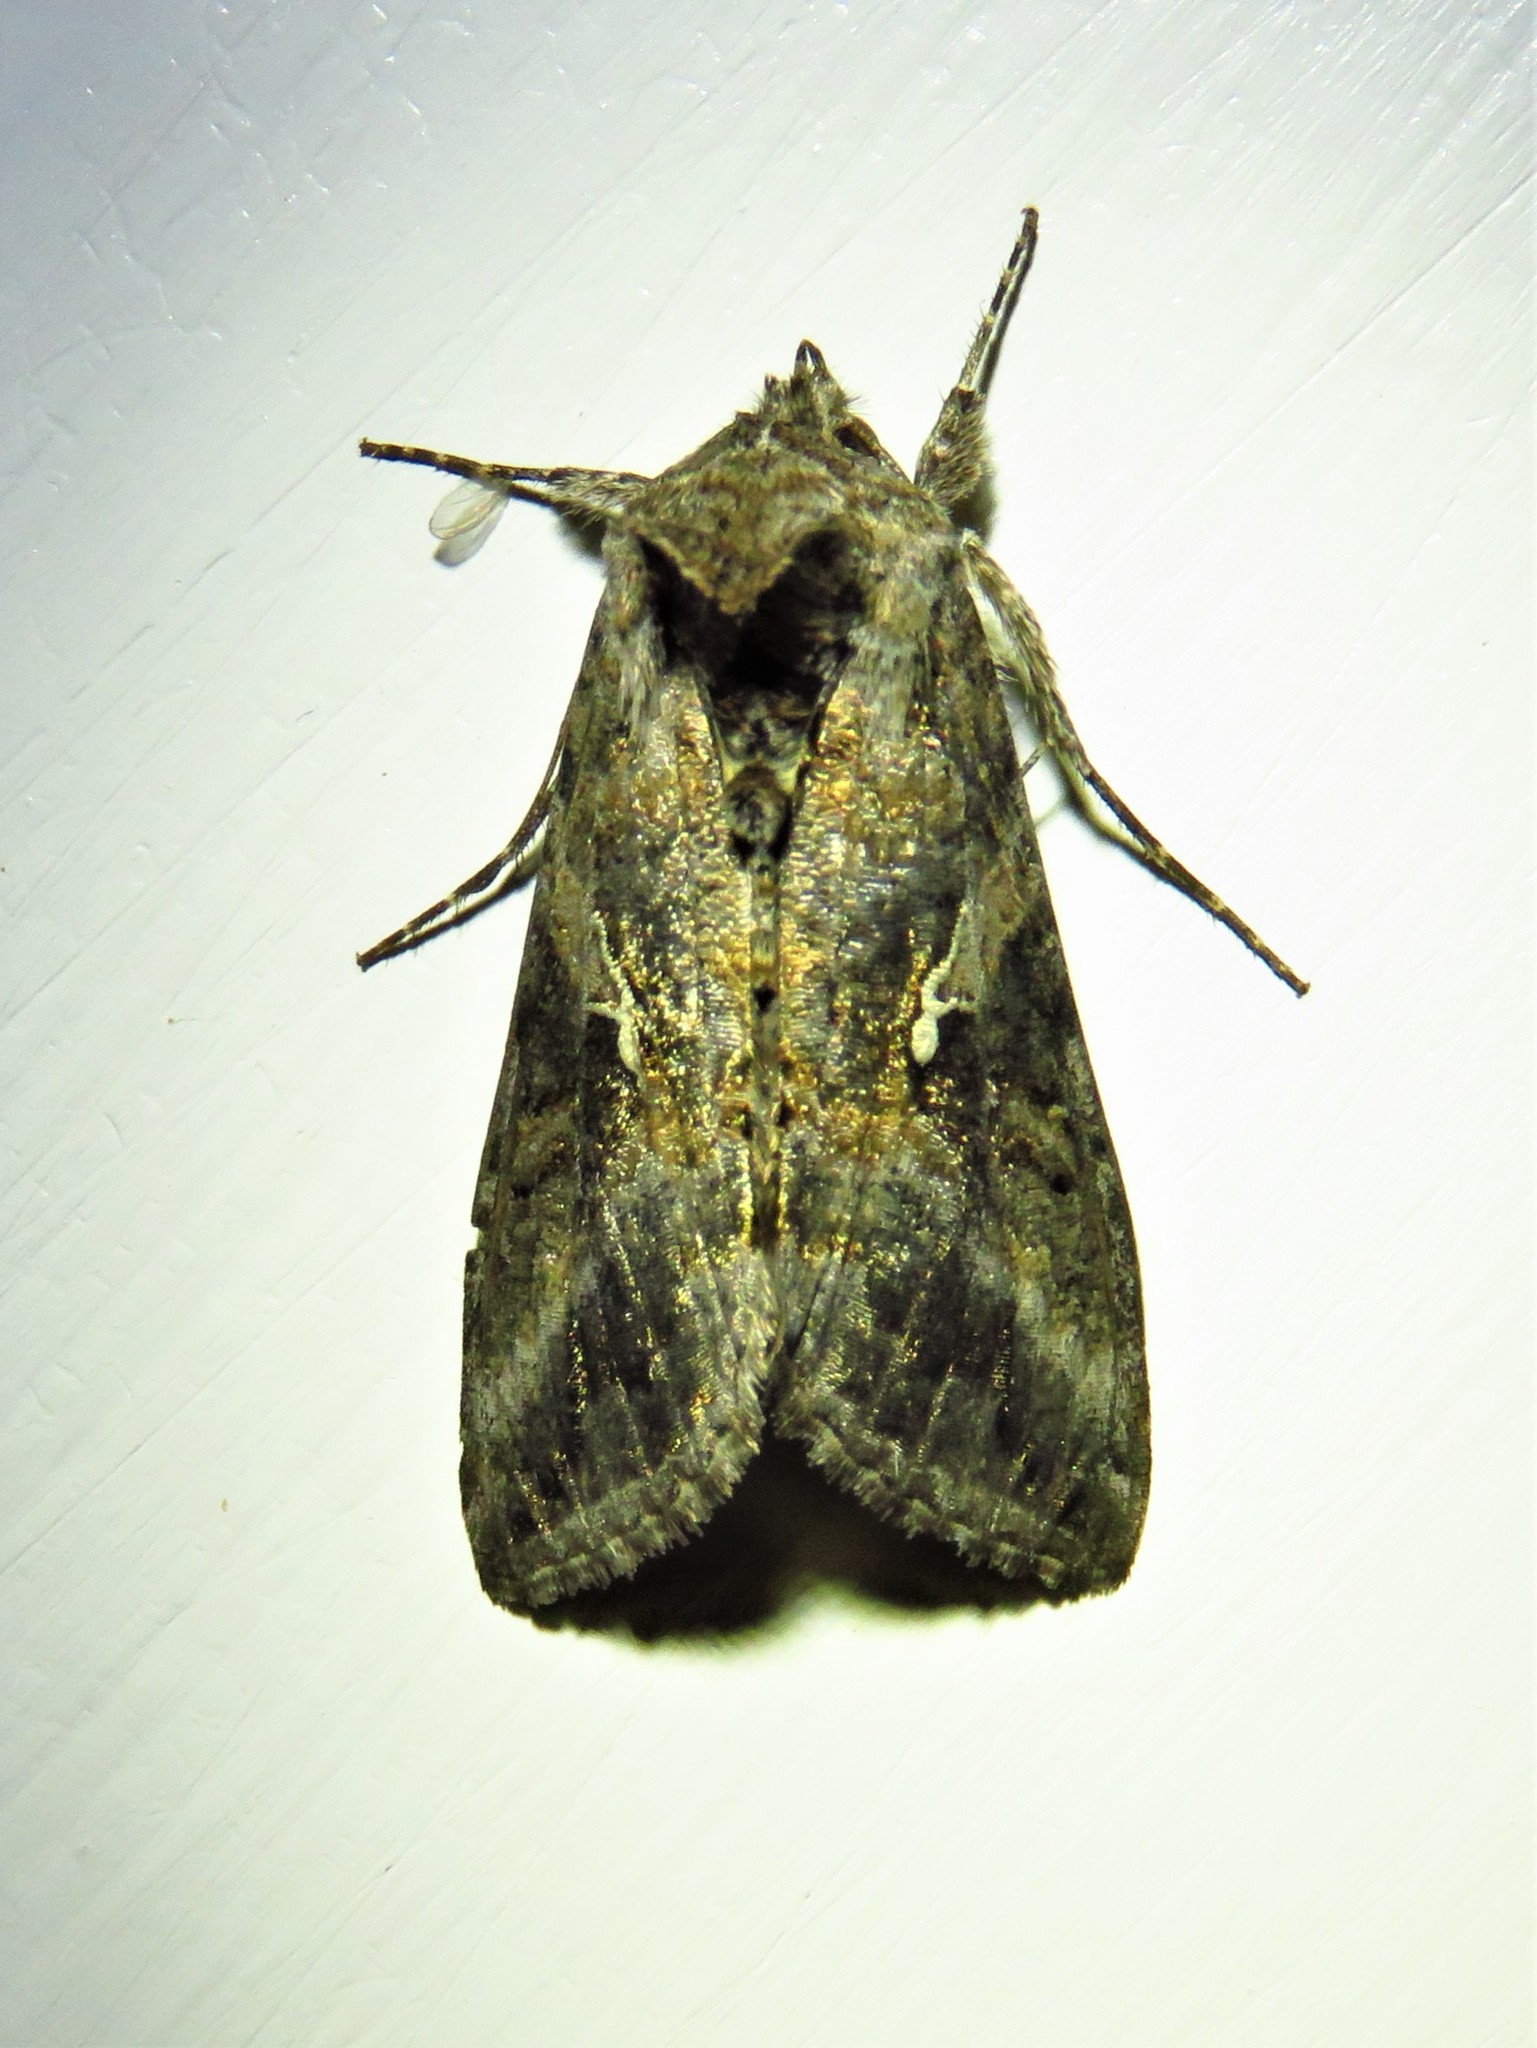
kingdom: Animalia
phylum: Arthropoda
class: Insecta
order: Lepidoptera
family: Noctuidae
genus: Rachiplusia
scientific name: Rachiplusia ou
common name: Gray looper moth
